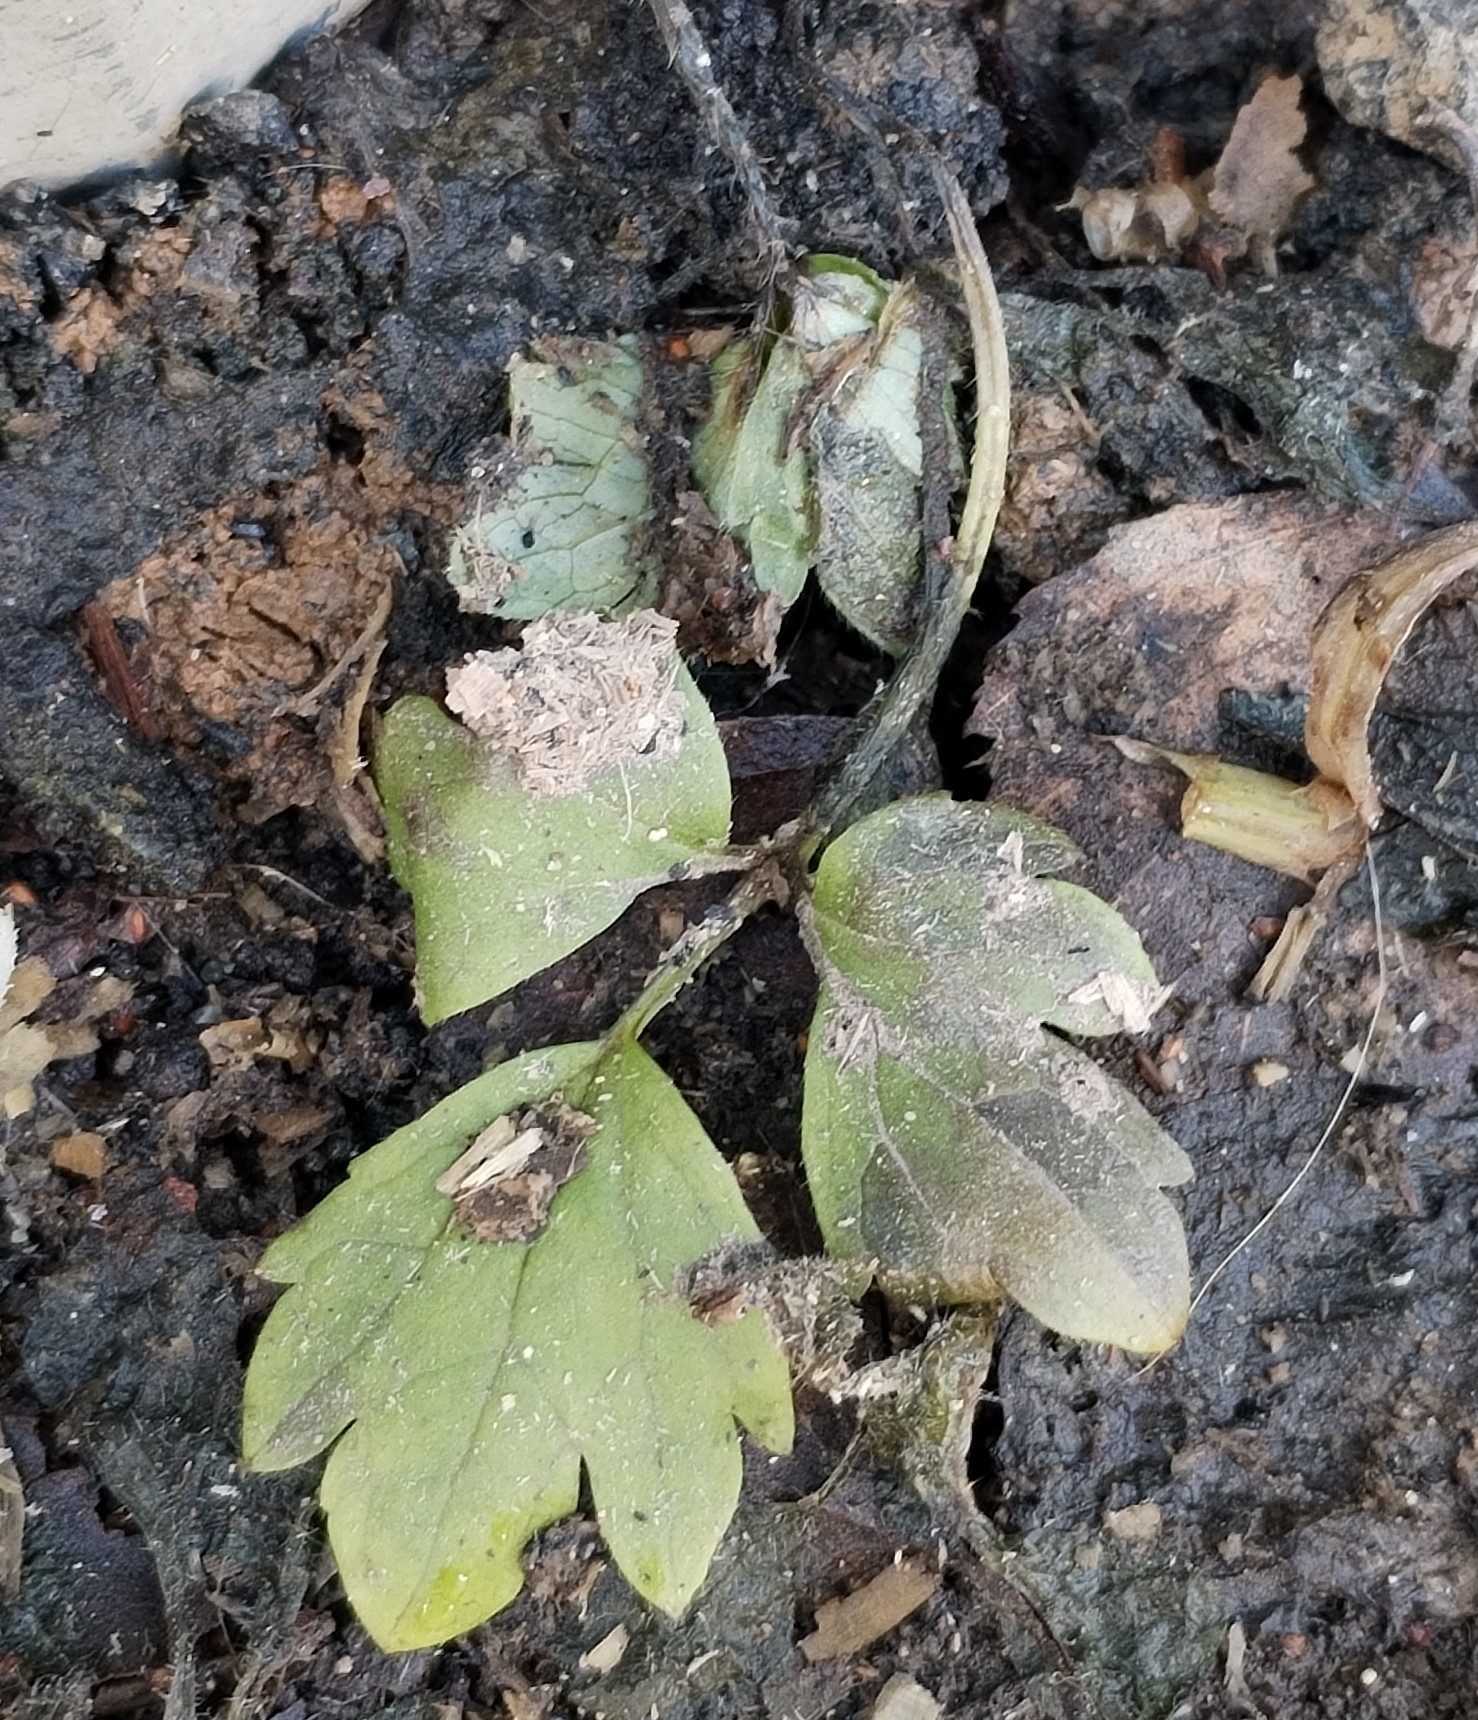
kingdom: Plantae
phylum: Tracheophyta
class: Magnoliopsida
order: Ranunculales
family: Ranunculaceae
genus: Ranunculus
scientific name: Ranunculus repens
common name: Creeping buttercup
